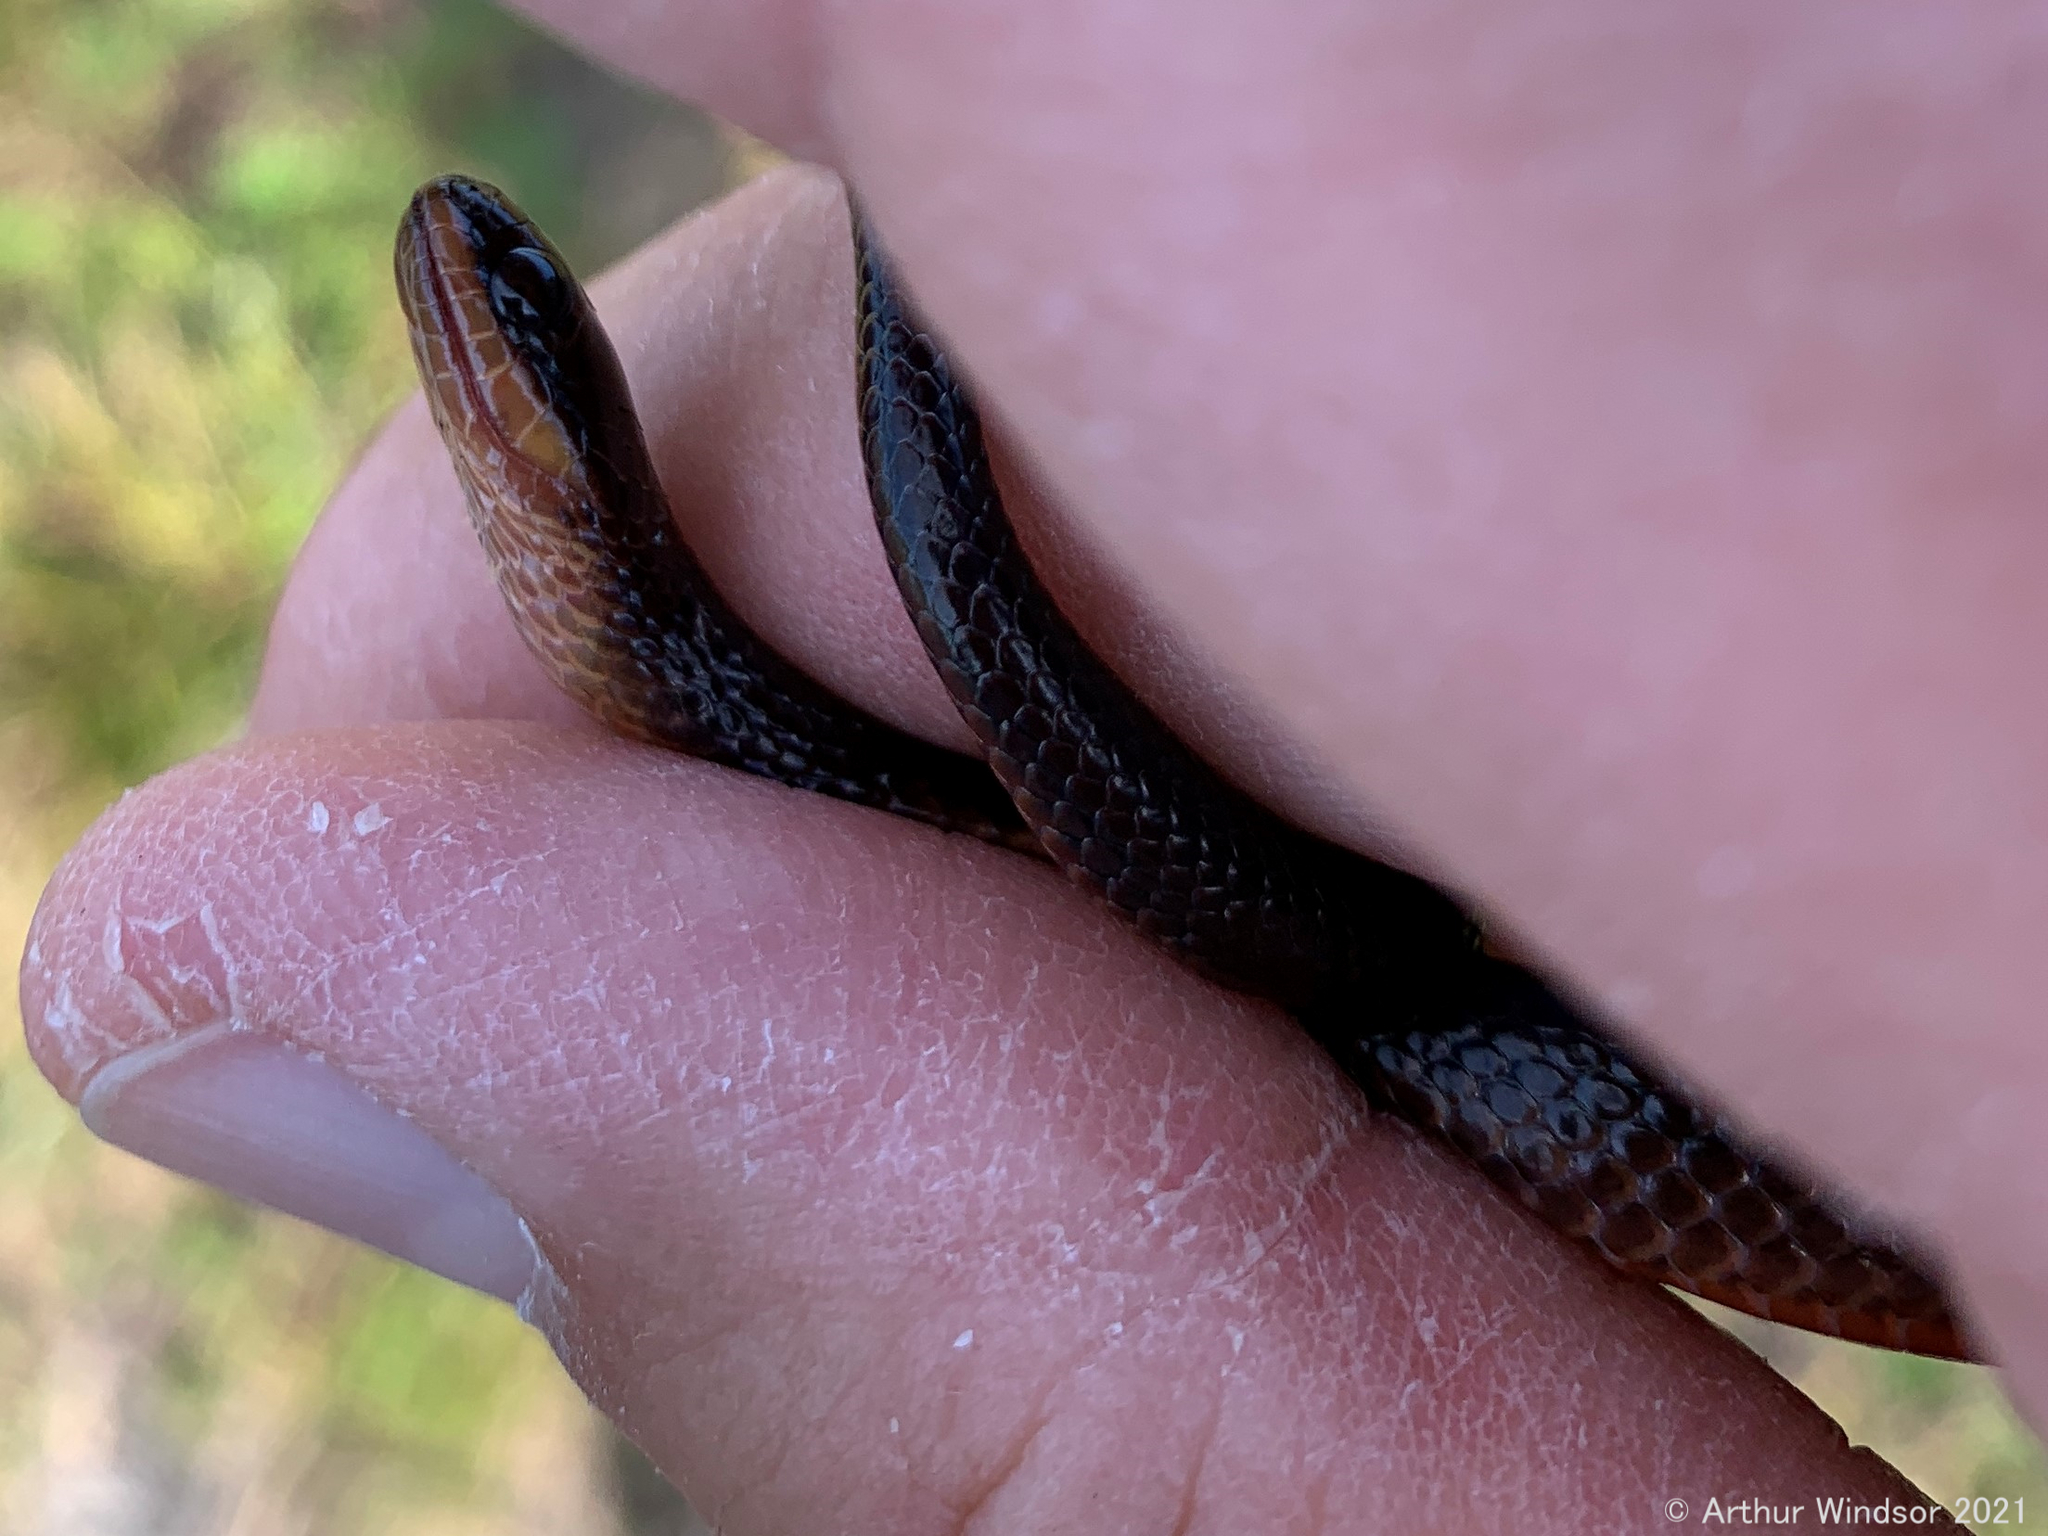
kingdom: Animalia
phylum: Chordata
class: Squamata
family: Colubridae
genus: Liodytes
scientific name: Liodytes alleni
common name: Striped crayfish snake
